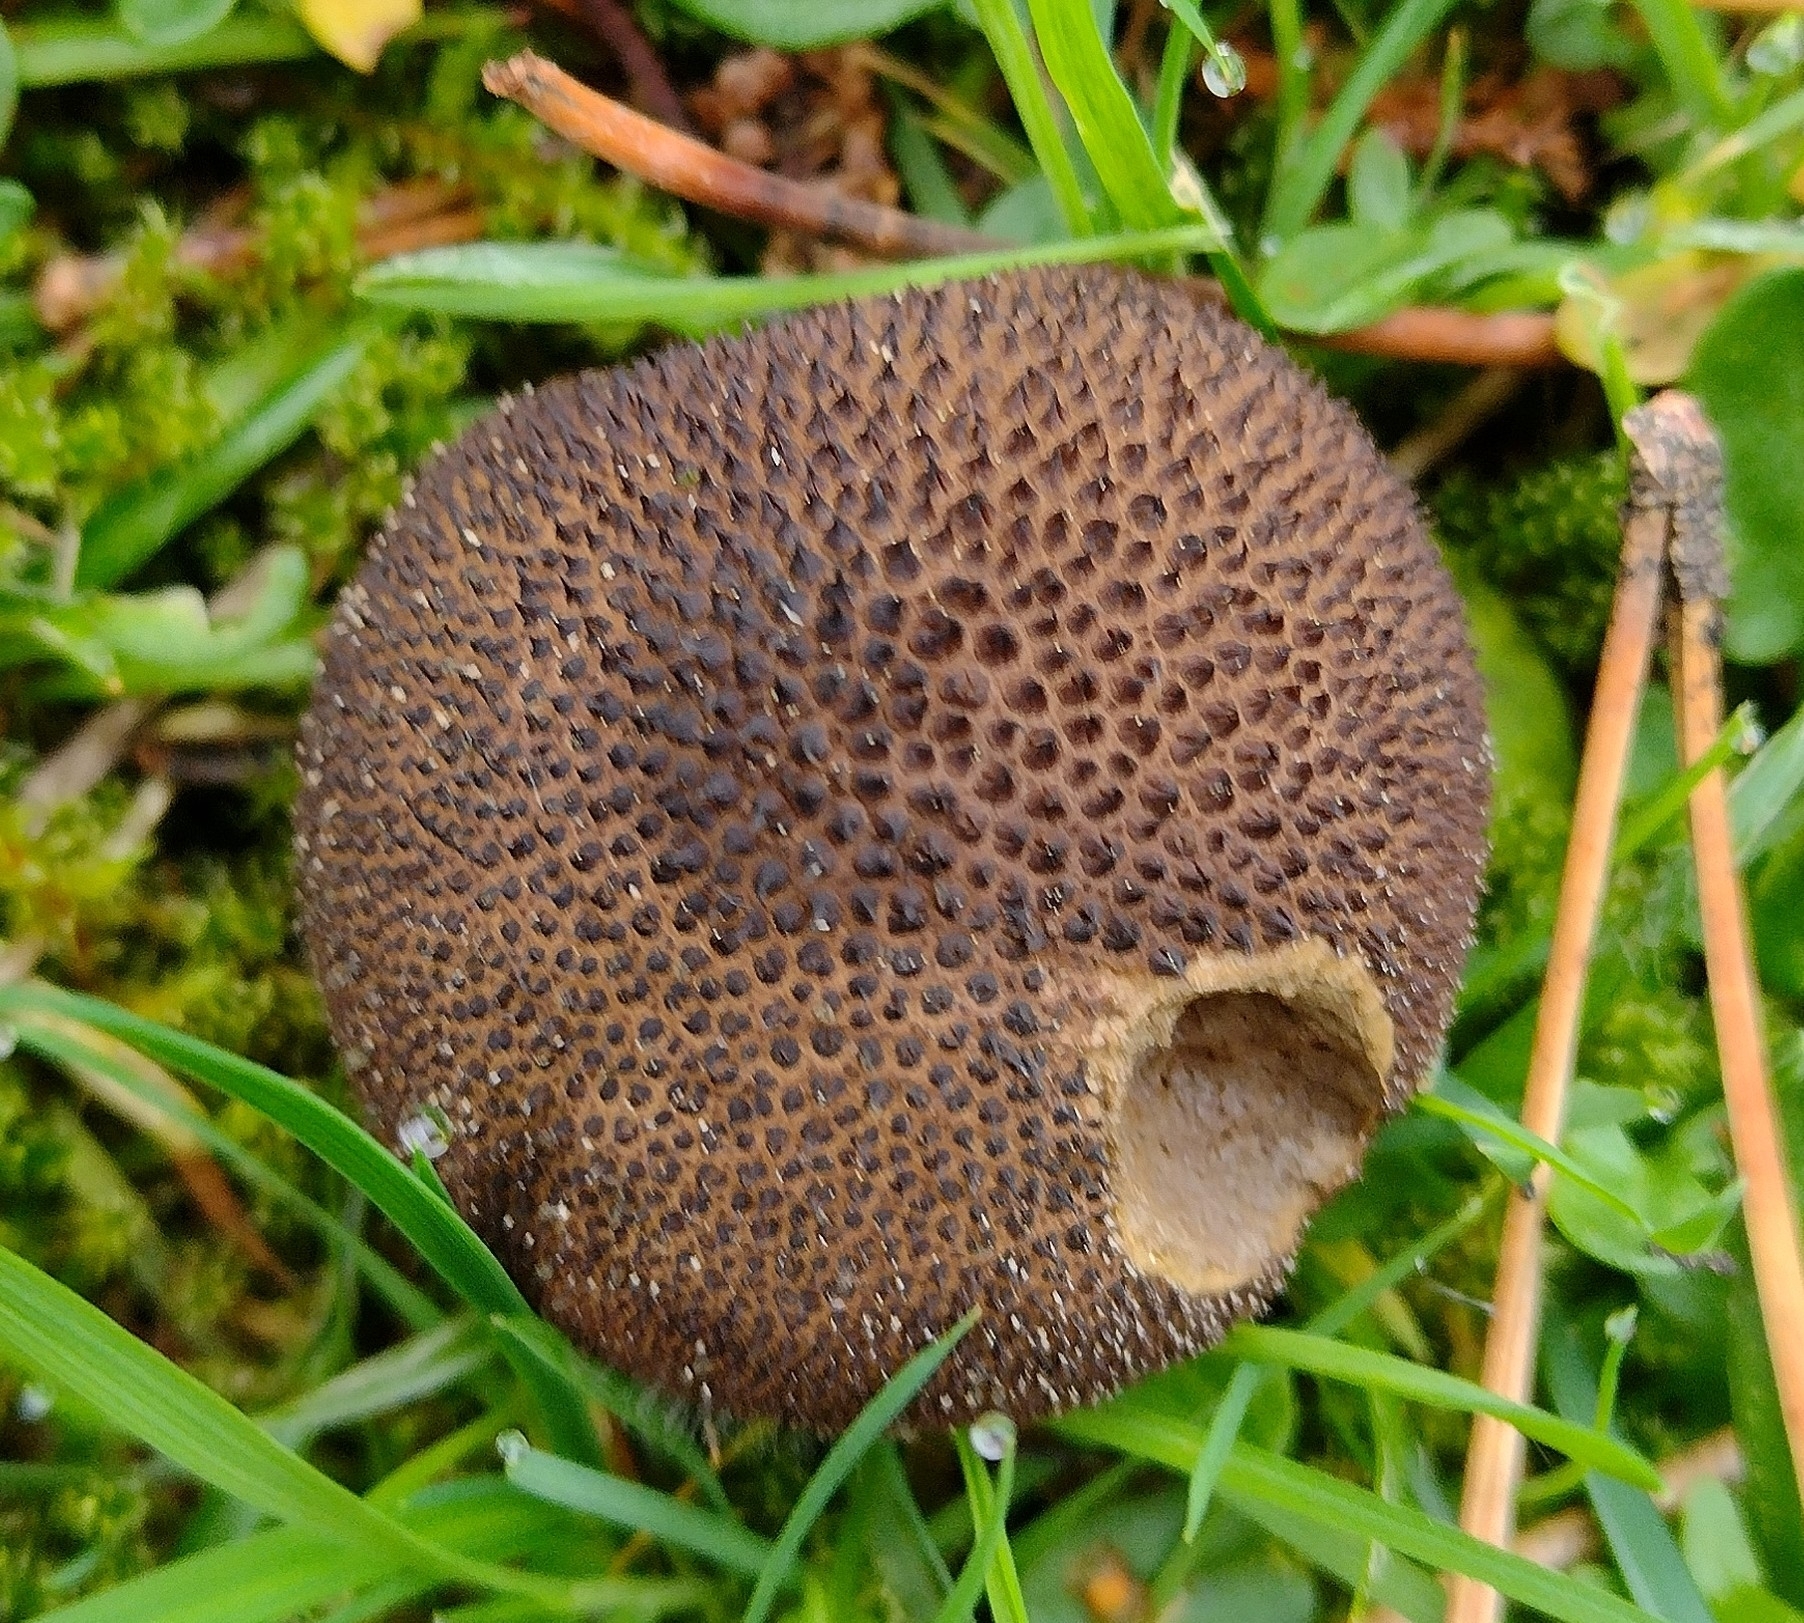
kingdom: Fungi
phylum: Basidiomycota
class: Agaricomycetes
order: Agaricales
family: Lycoperdaceae
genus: Lycoperdon
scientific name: Lycoperdon nigrescens
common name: Blackish puffball
